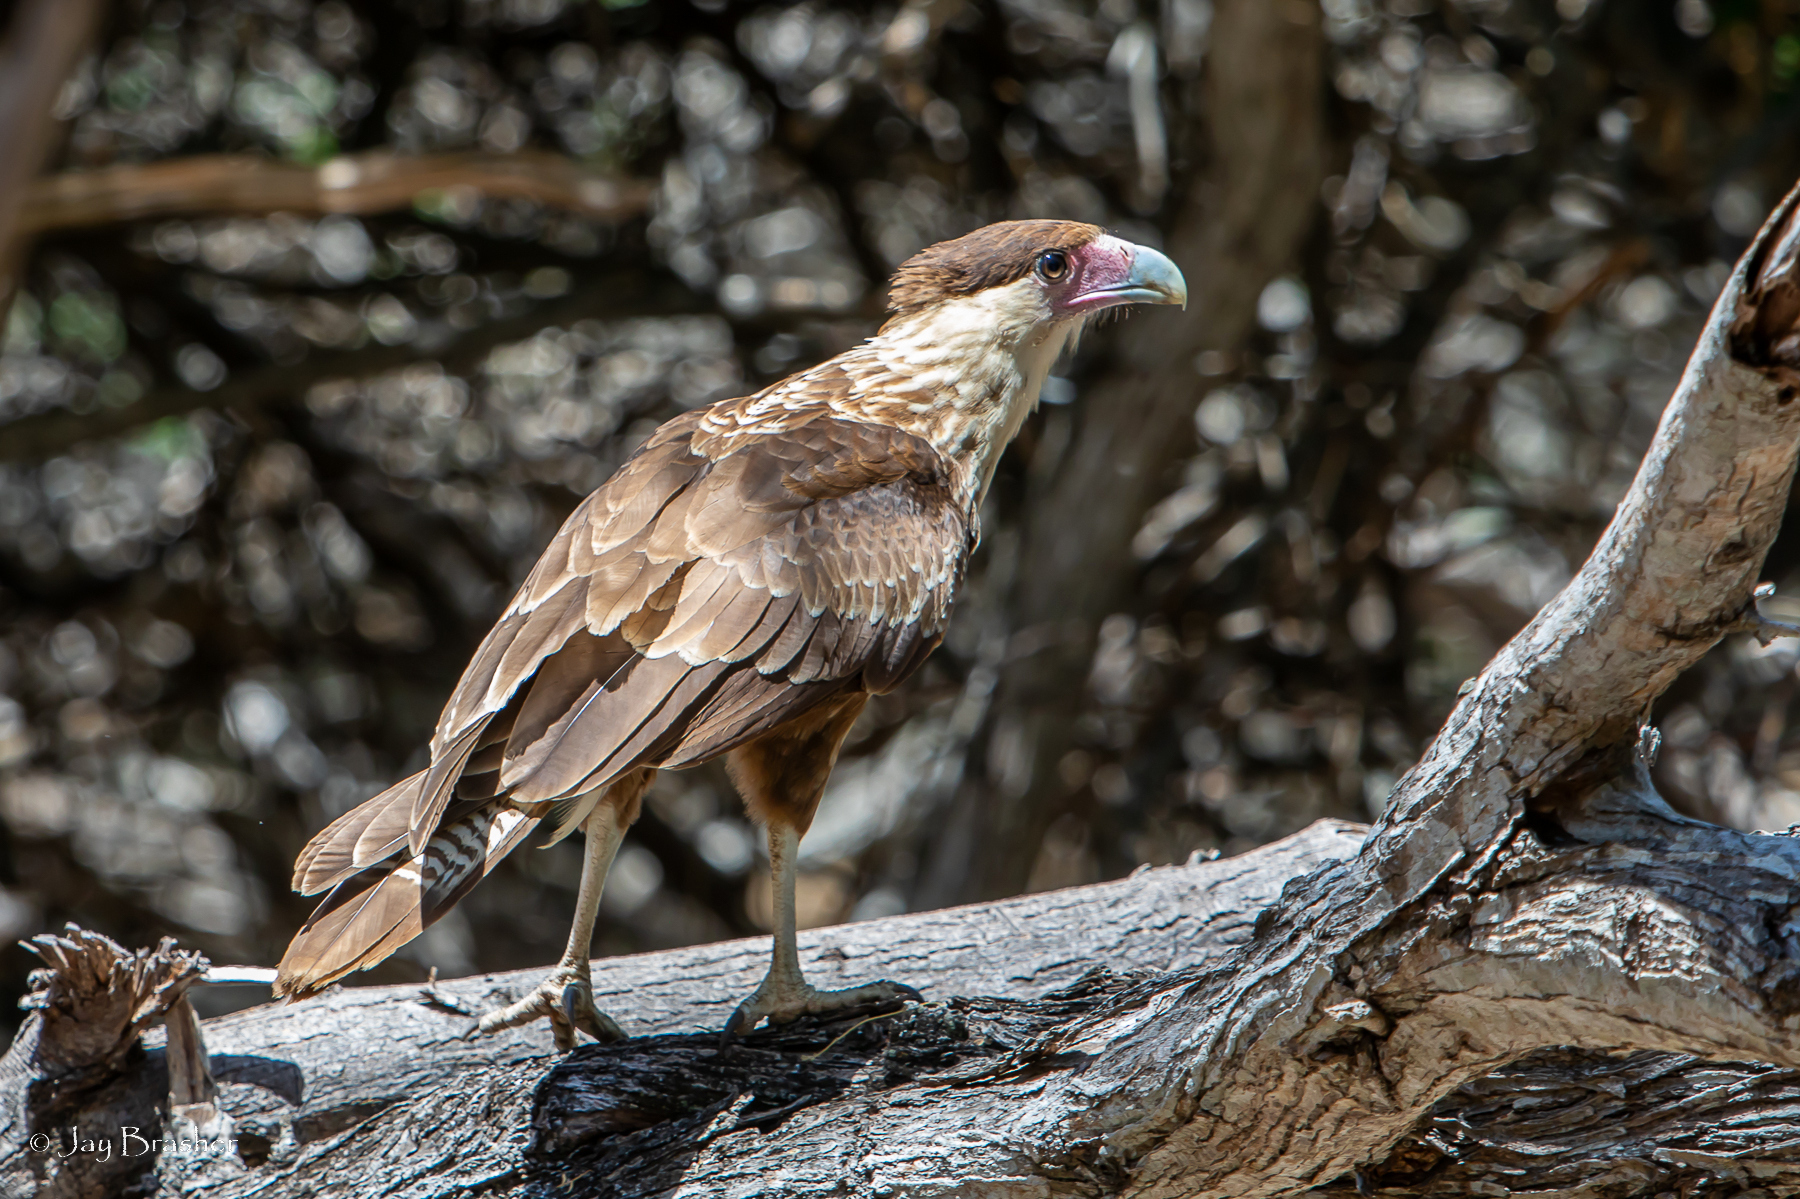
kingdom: Animalia
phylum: Chordata
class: Aves
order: Falconiformes
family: Falconidae
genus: Caracara
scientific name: Caracara plancus
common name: Southern caracara
